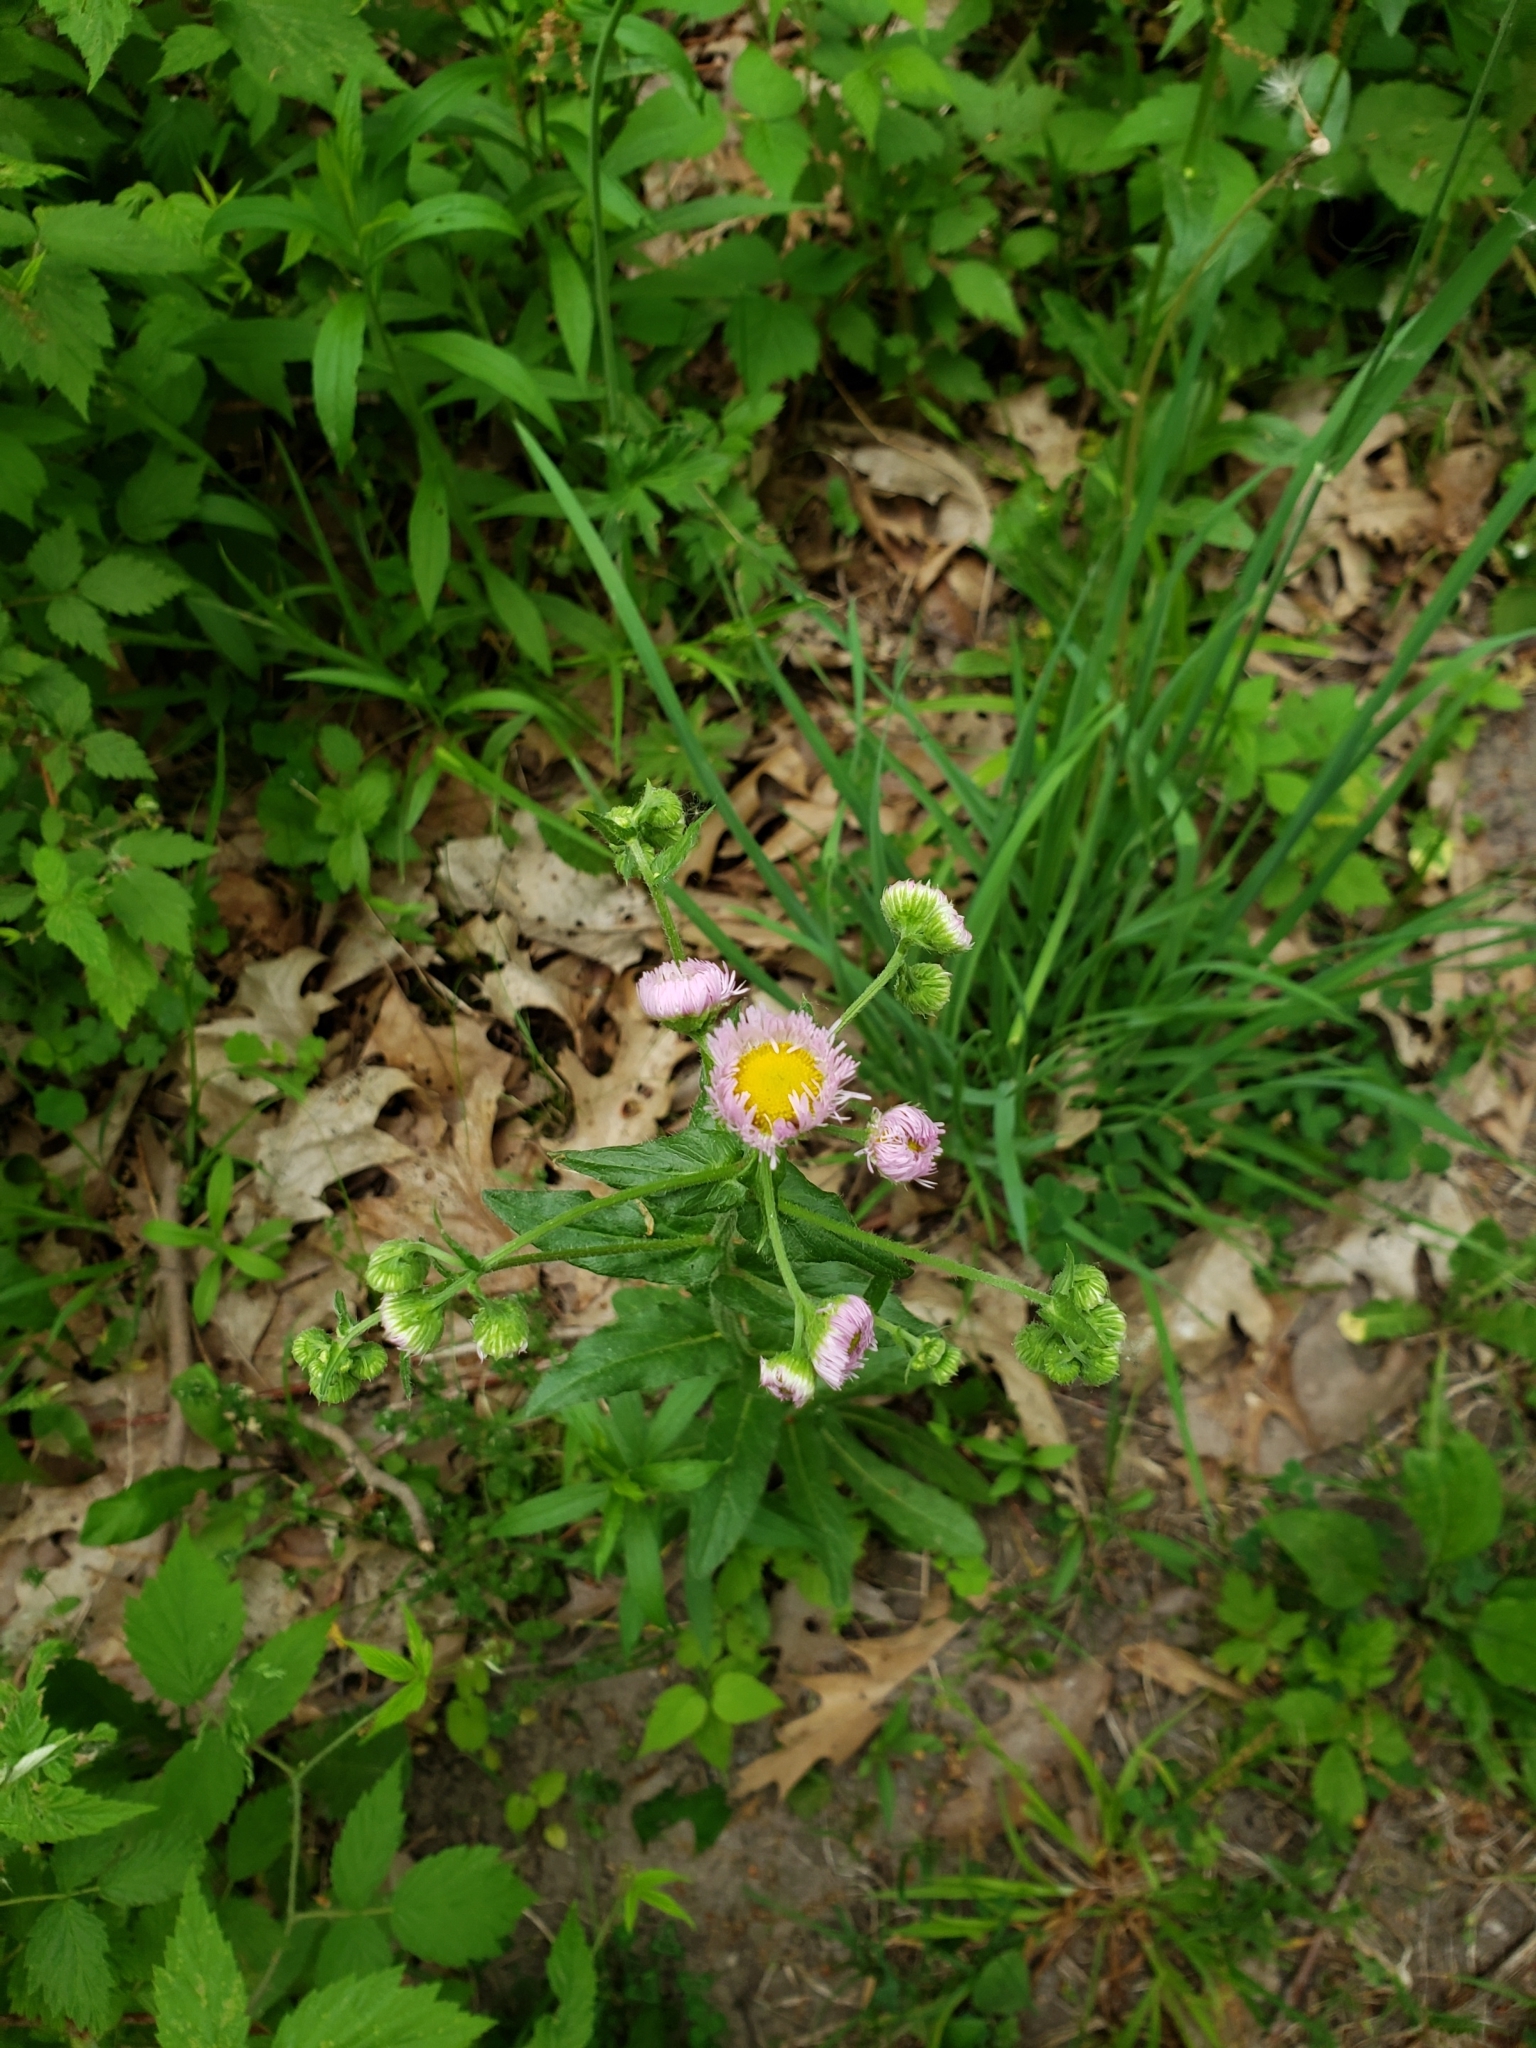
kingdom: Plantae
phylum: Tracheophyta
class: Magnoliopsida
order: Asterales
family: Asteraceae
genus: Erigeron
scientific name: Erigeron philadelphicus
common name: Robin's-plantain
